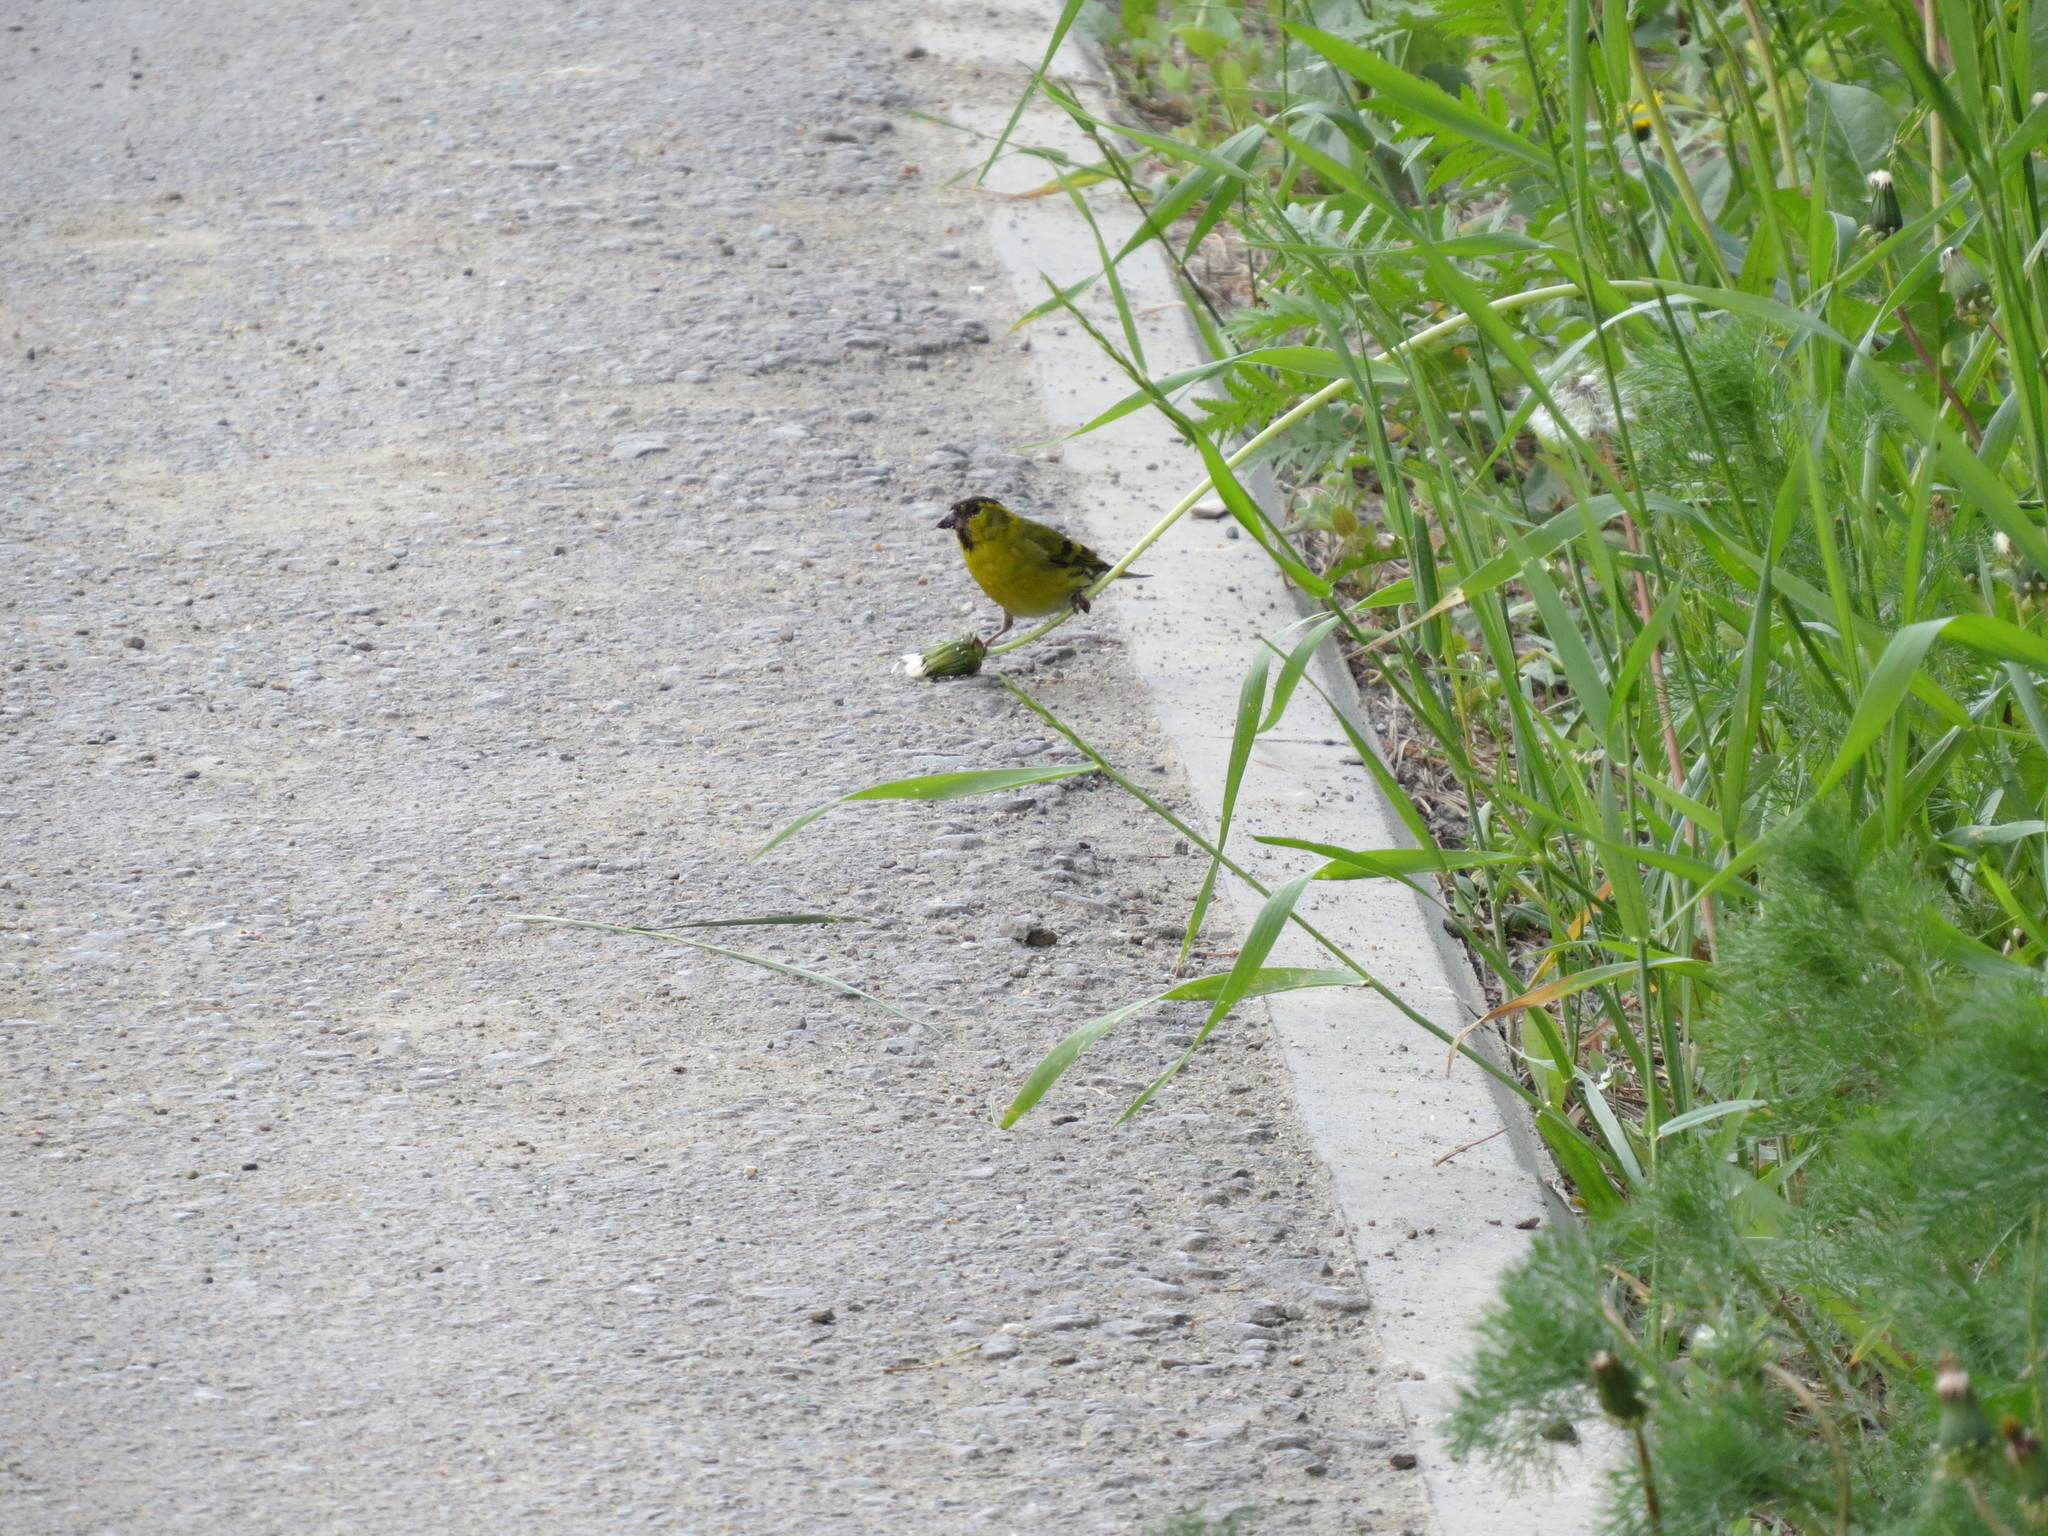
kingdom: Animalia
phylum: Chordata
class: Aves
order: Passeriformes
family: Fringillidae
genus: Spinus
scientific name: Spinus spinus
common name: Eurasian siskin
